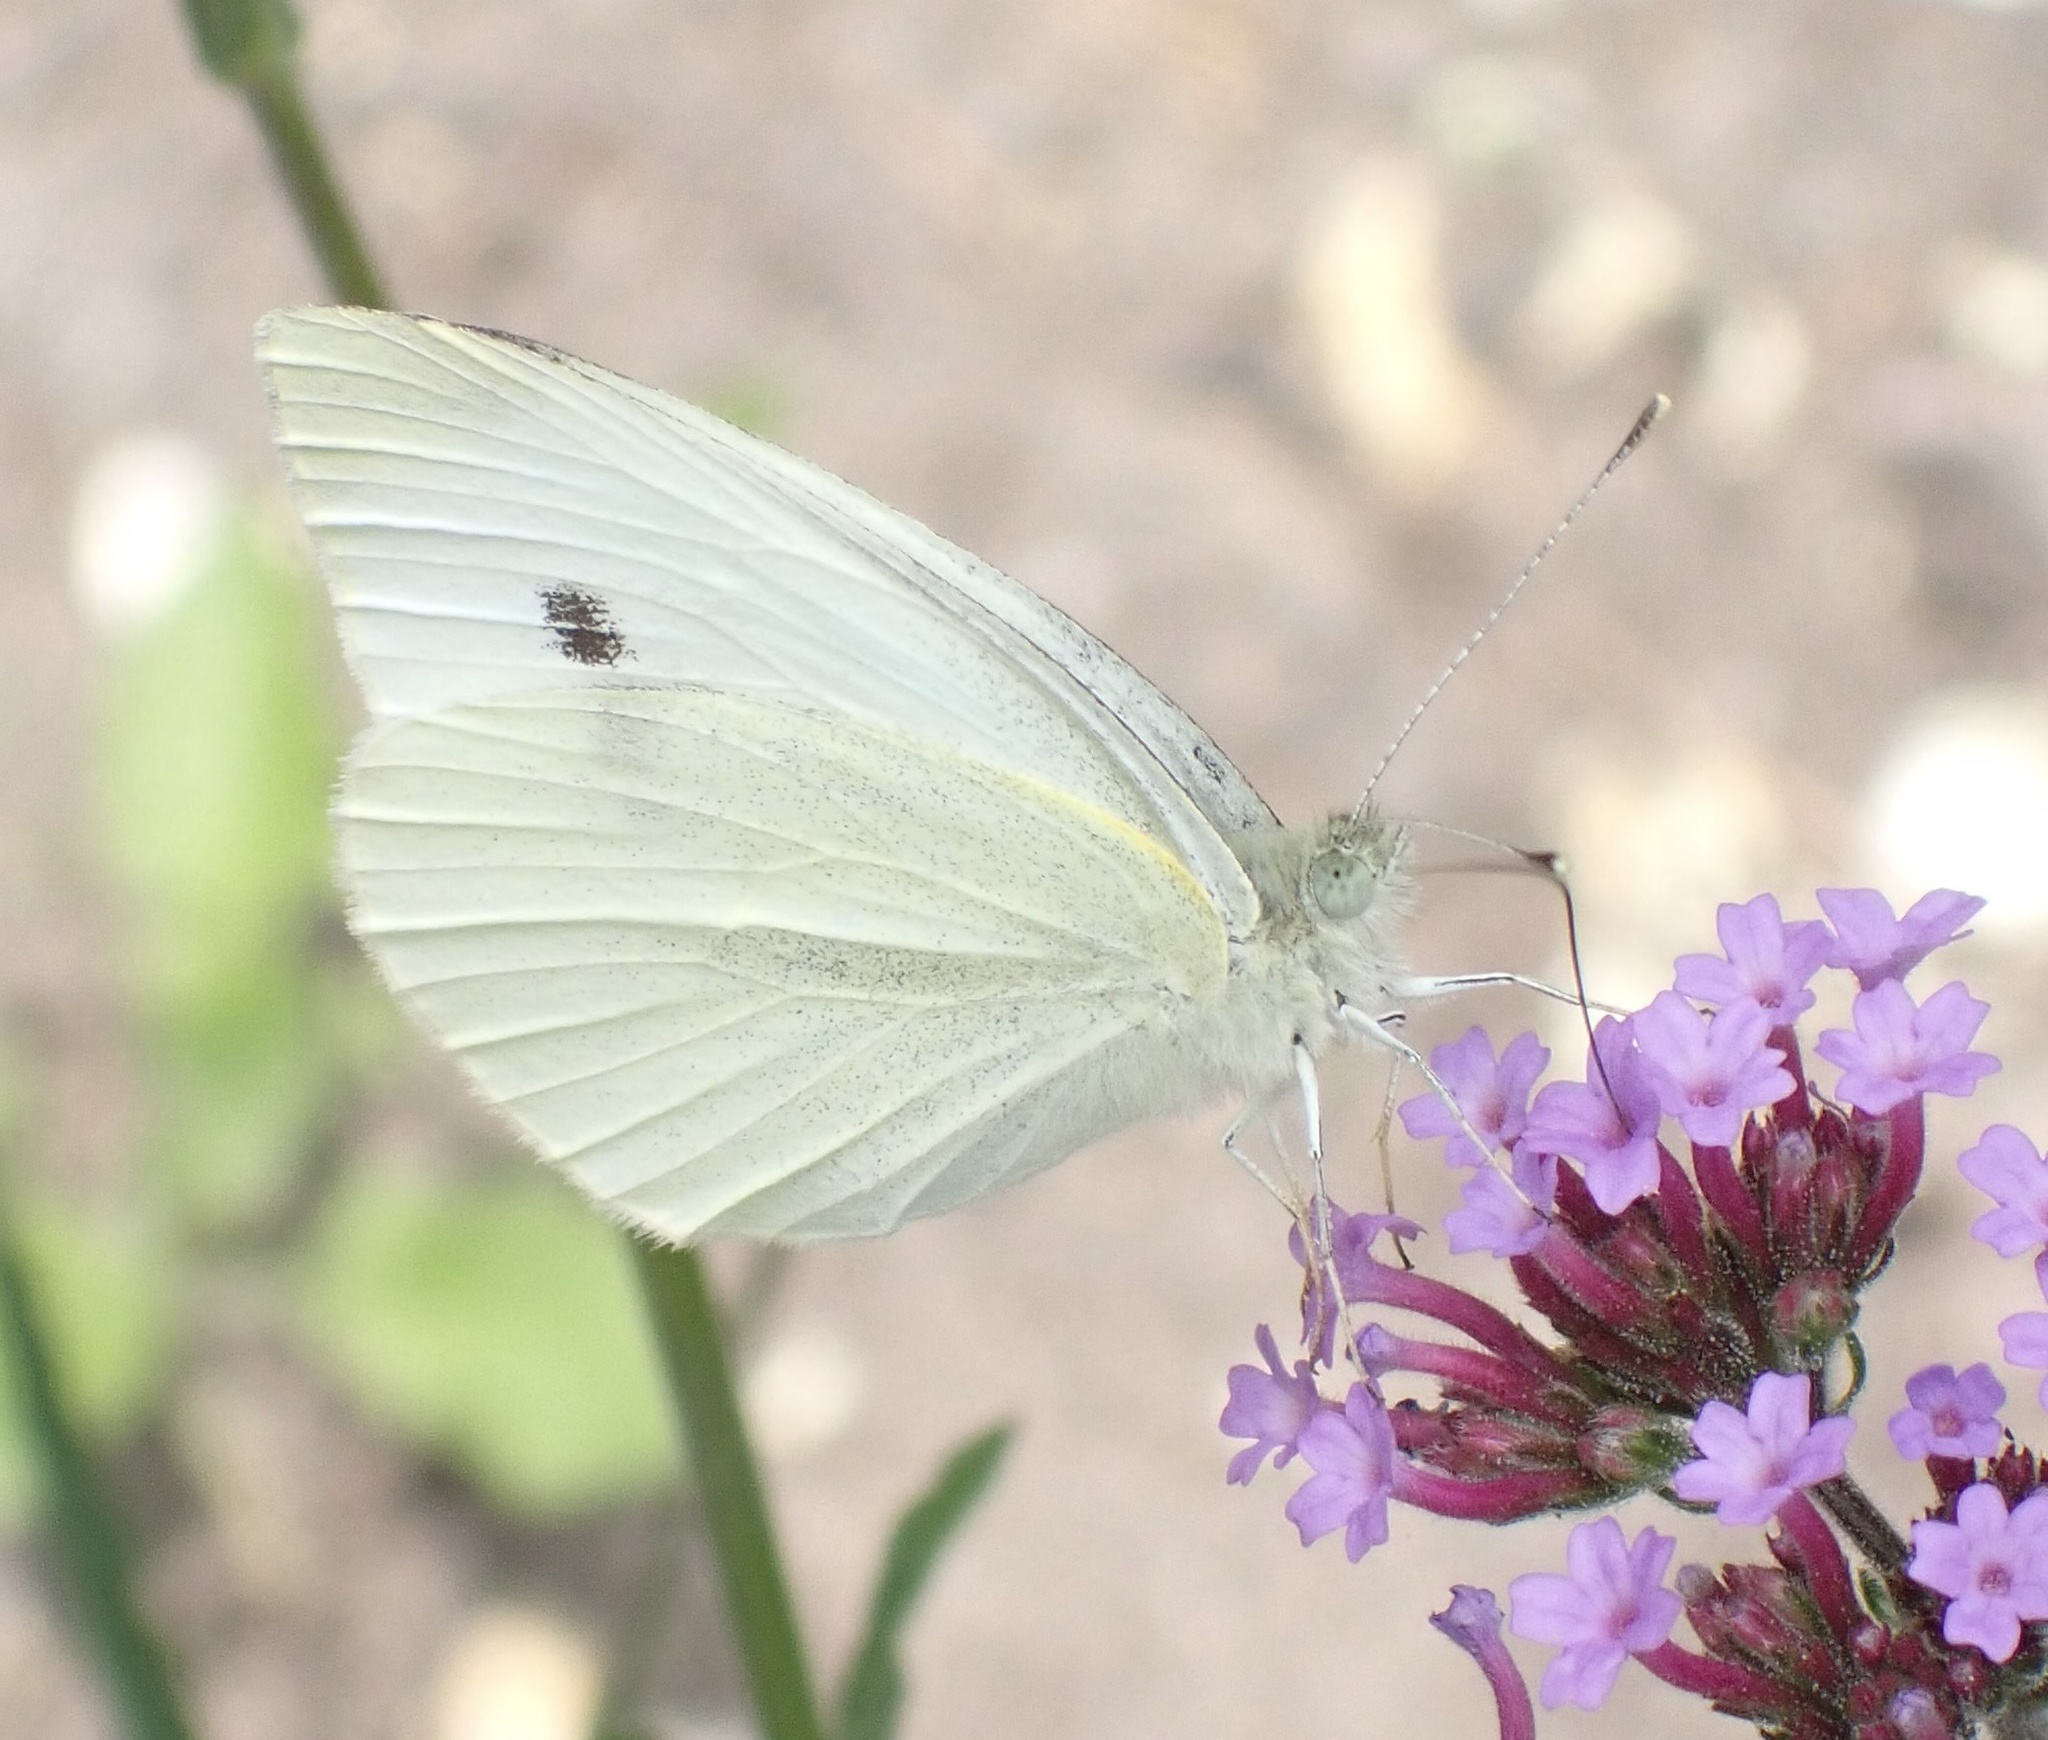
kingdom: Animalia
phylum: Arthropoda
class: Insecta
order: Lepidoptera
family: Pieridae
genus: Pieris
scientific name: Pieris rapae
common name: Small white
